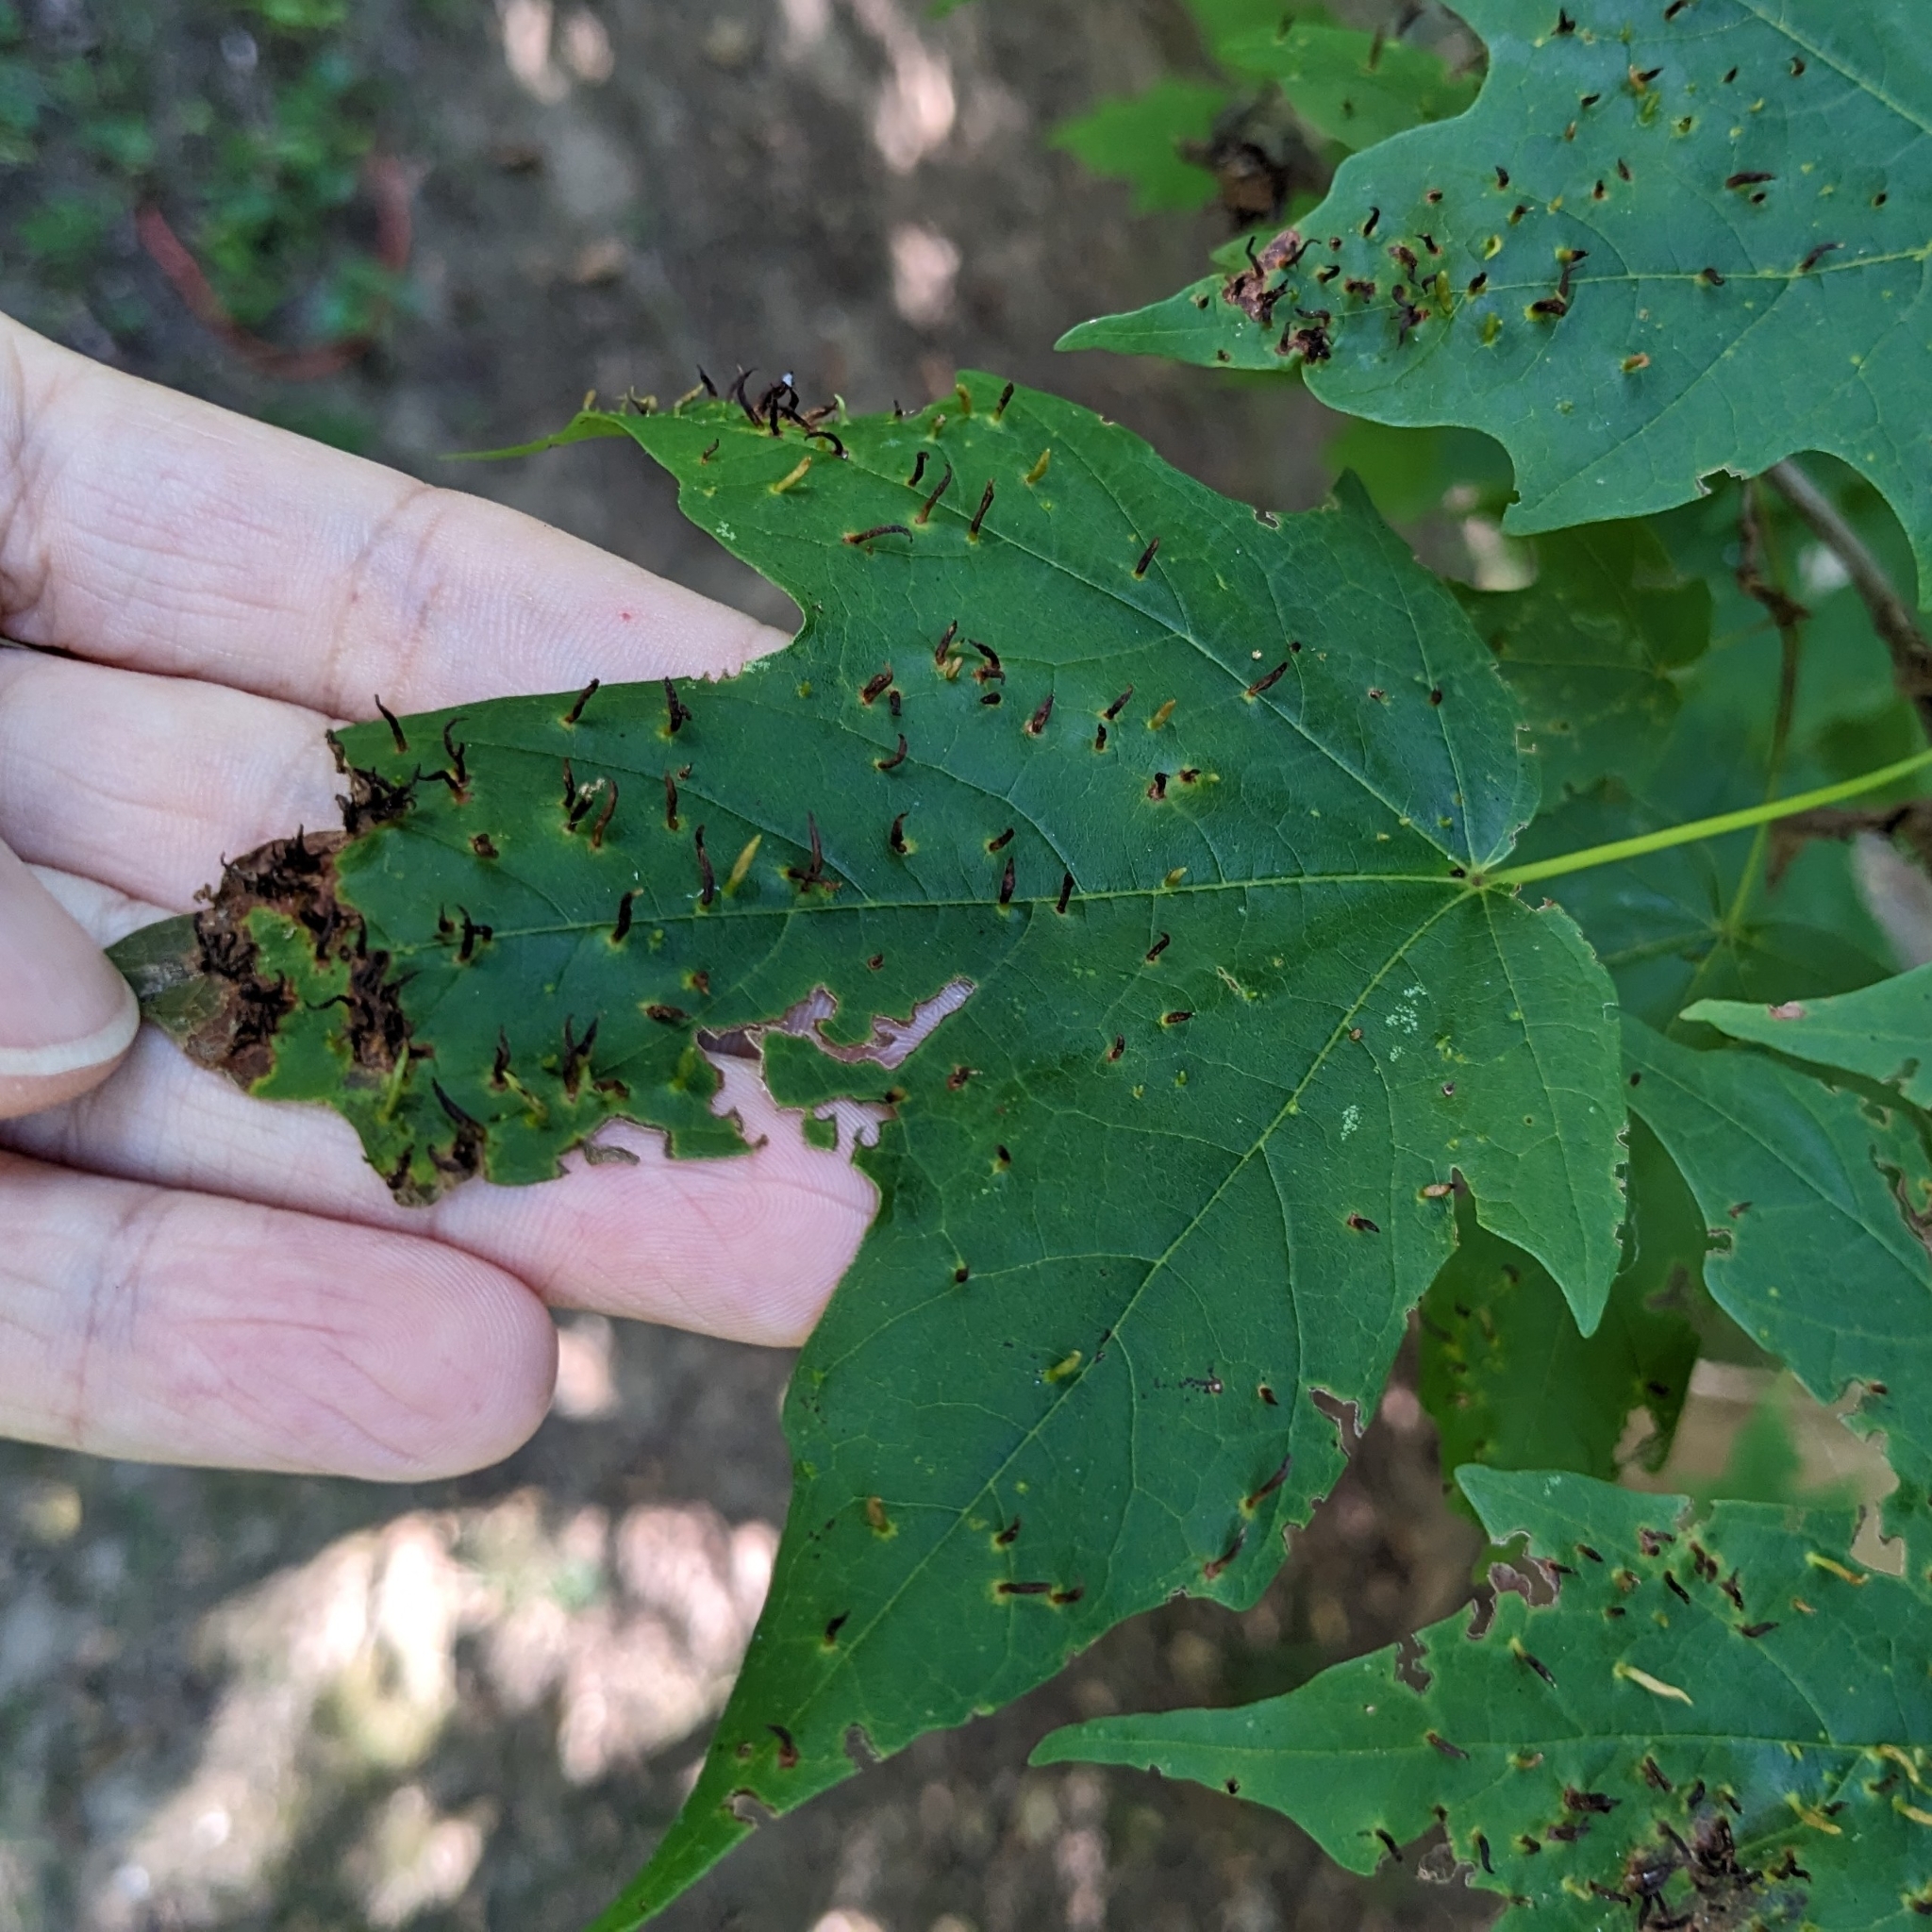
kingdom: Animalia
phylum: Arthropoda
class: Arachnida
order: Trombidiformes
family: Eriophyidae
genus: Vasates
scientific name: Vasates aceriscrumena
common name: Maple spindle gall mite
